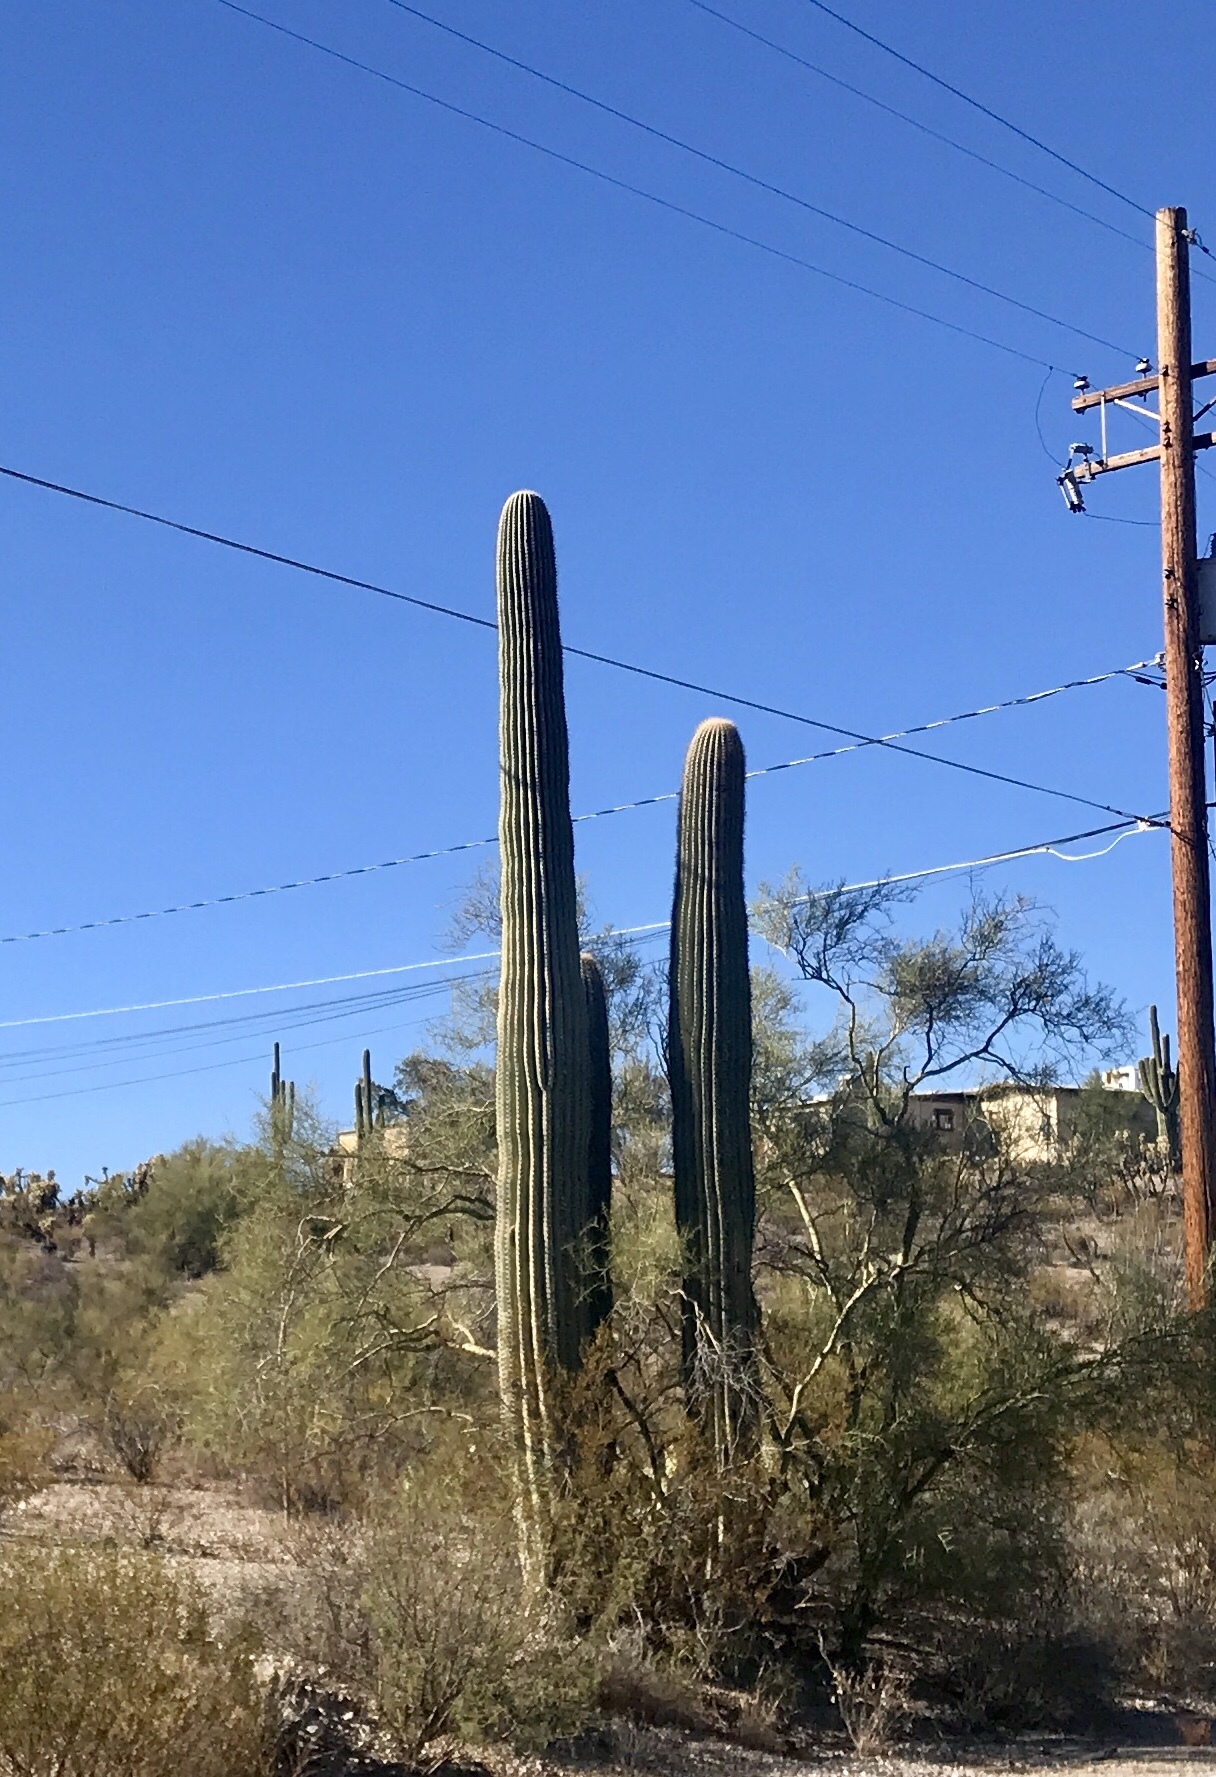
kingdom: Plantae
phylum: Tracheophyta
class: Magnoliopsida
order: Caryophyllales
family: Cactaceae
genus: Carnegiea
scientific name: Carnegiea gigantea
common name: Saguaro
